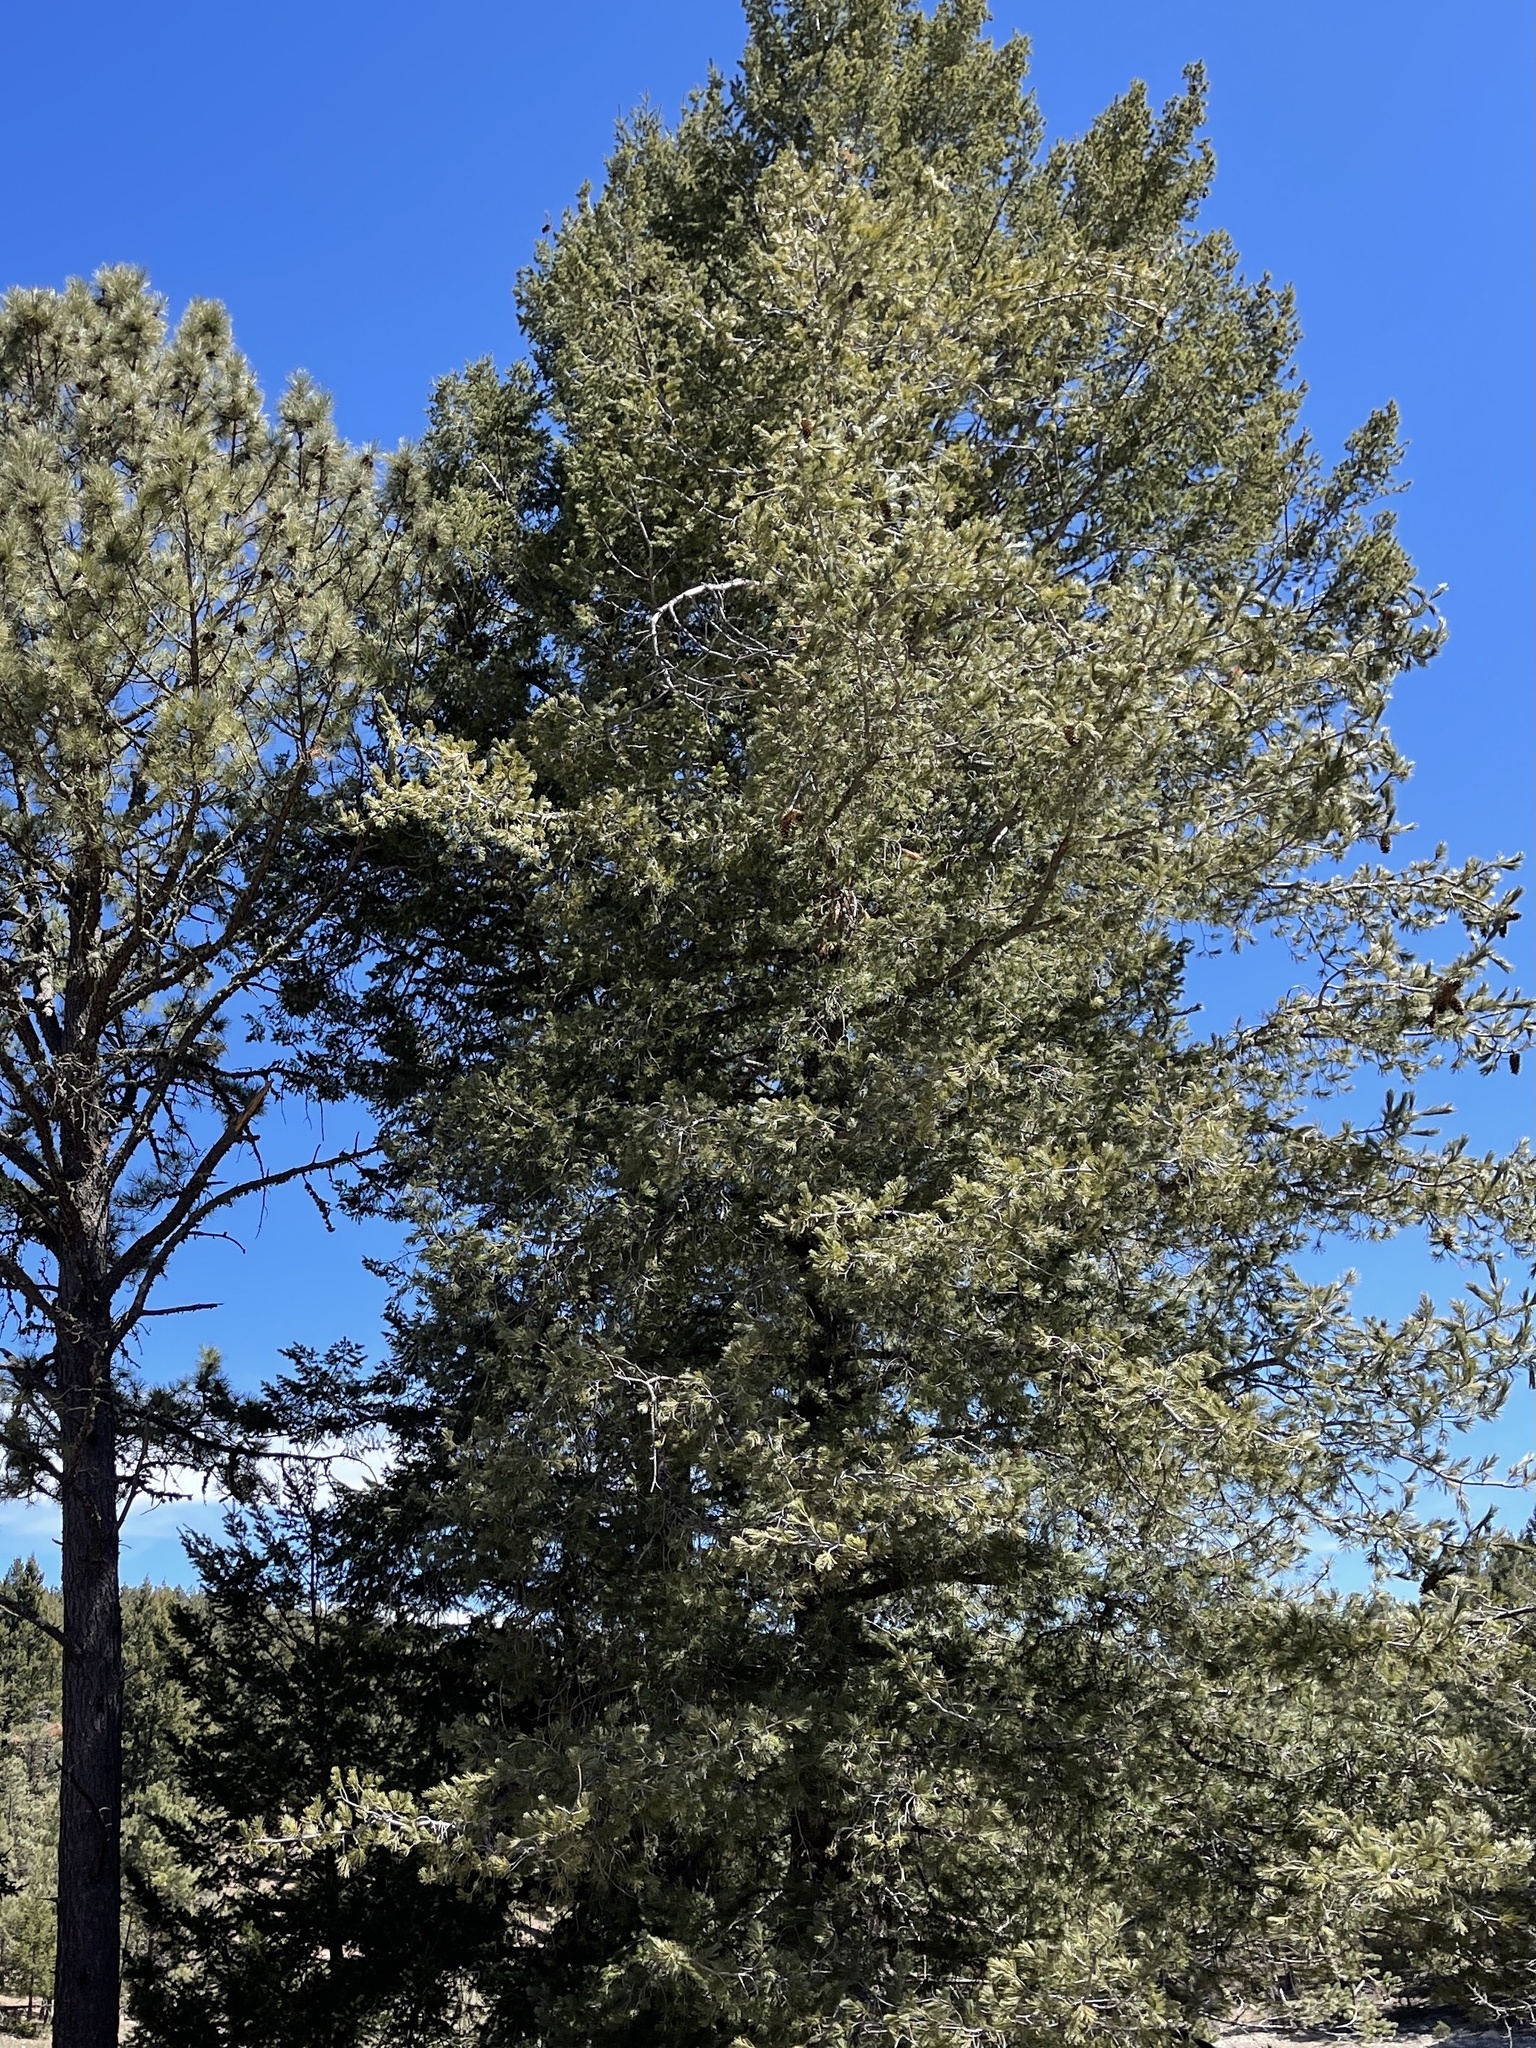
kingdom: Plantae
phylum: Tracheophyta
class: Pinopsida
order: Pinales
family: Pinaceae
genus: Pinus
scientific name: Pinus strobiformis
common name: Southwestern white pine
